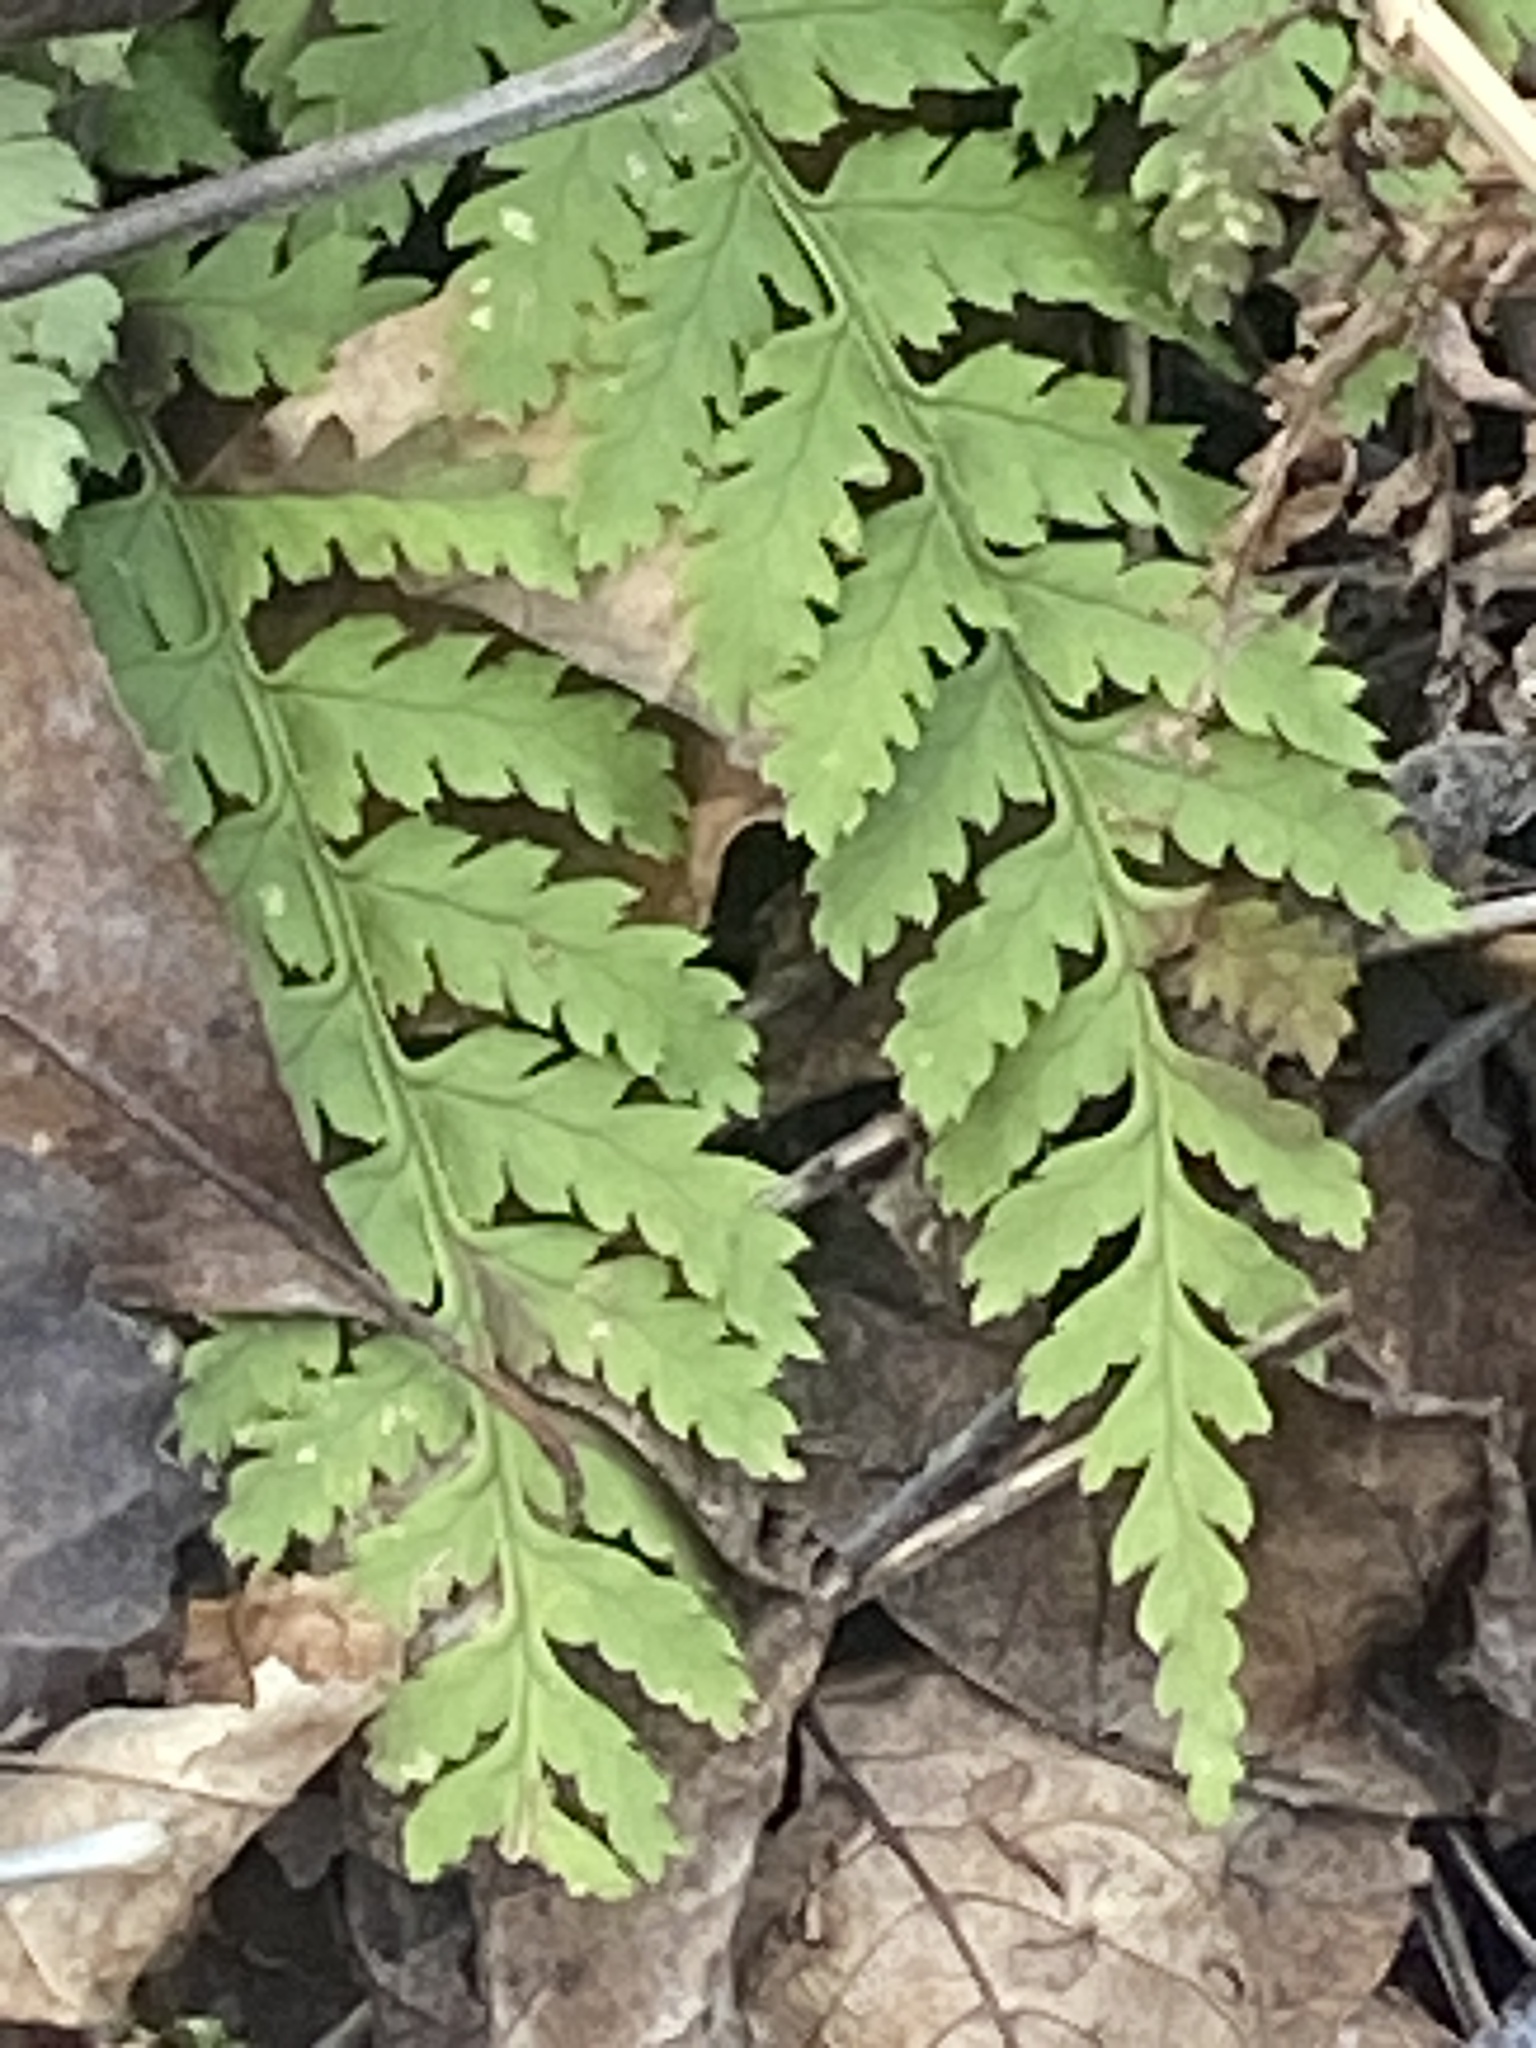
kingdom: Plantae
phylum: Tracheophyta
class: Polypodiopsida
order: Polypodiales
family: Dryopteridaceae
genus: Dryopteris
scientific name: Dryopteris intermedia
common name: Evergreen wood fern
